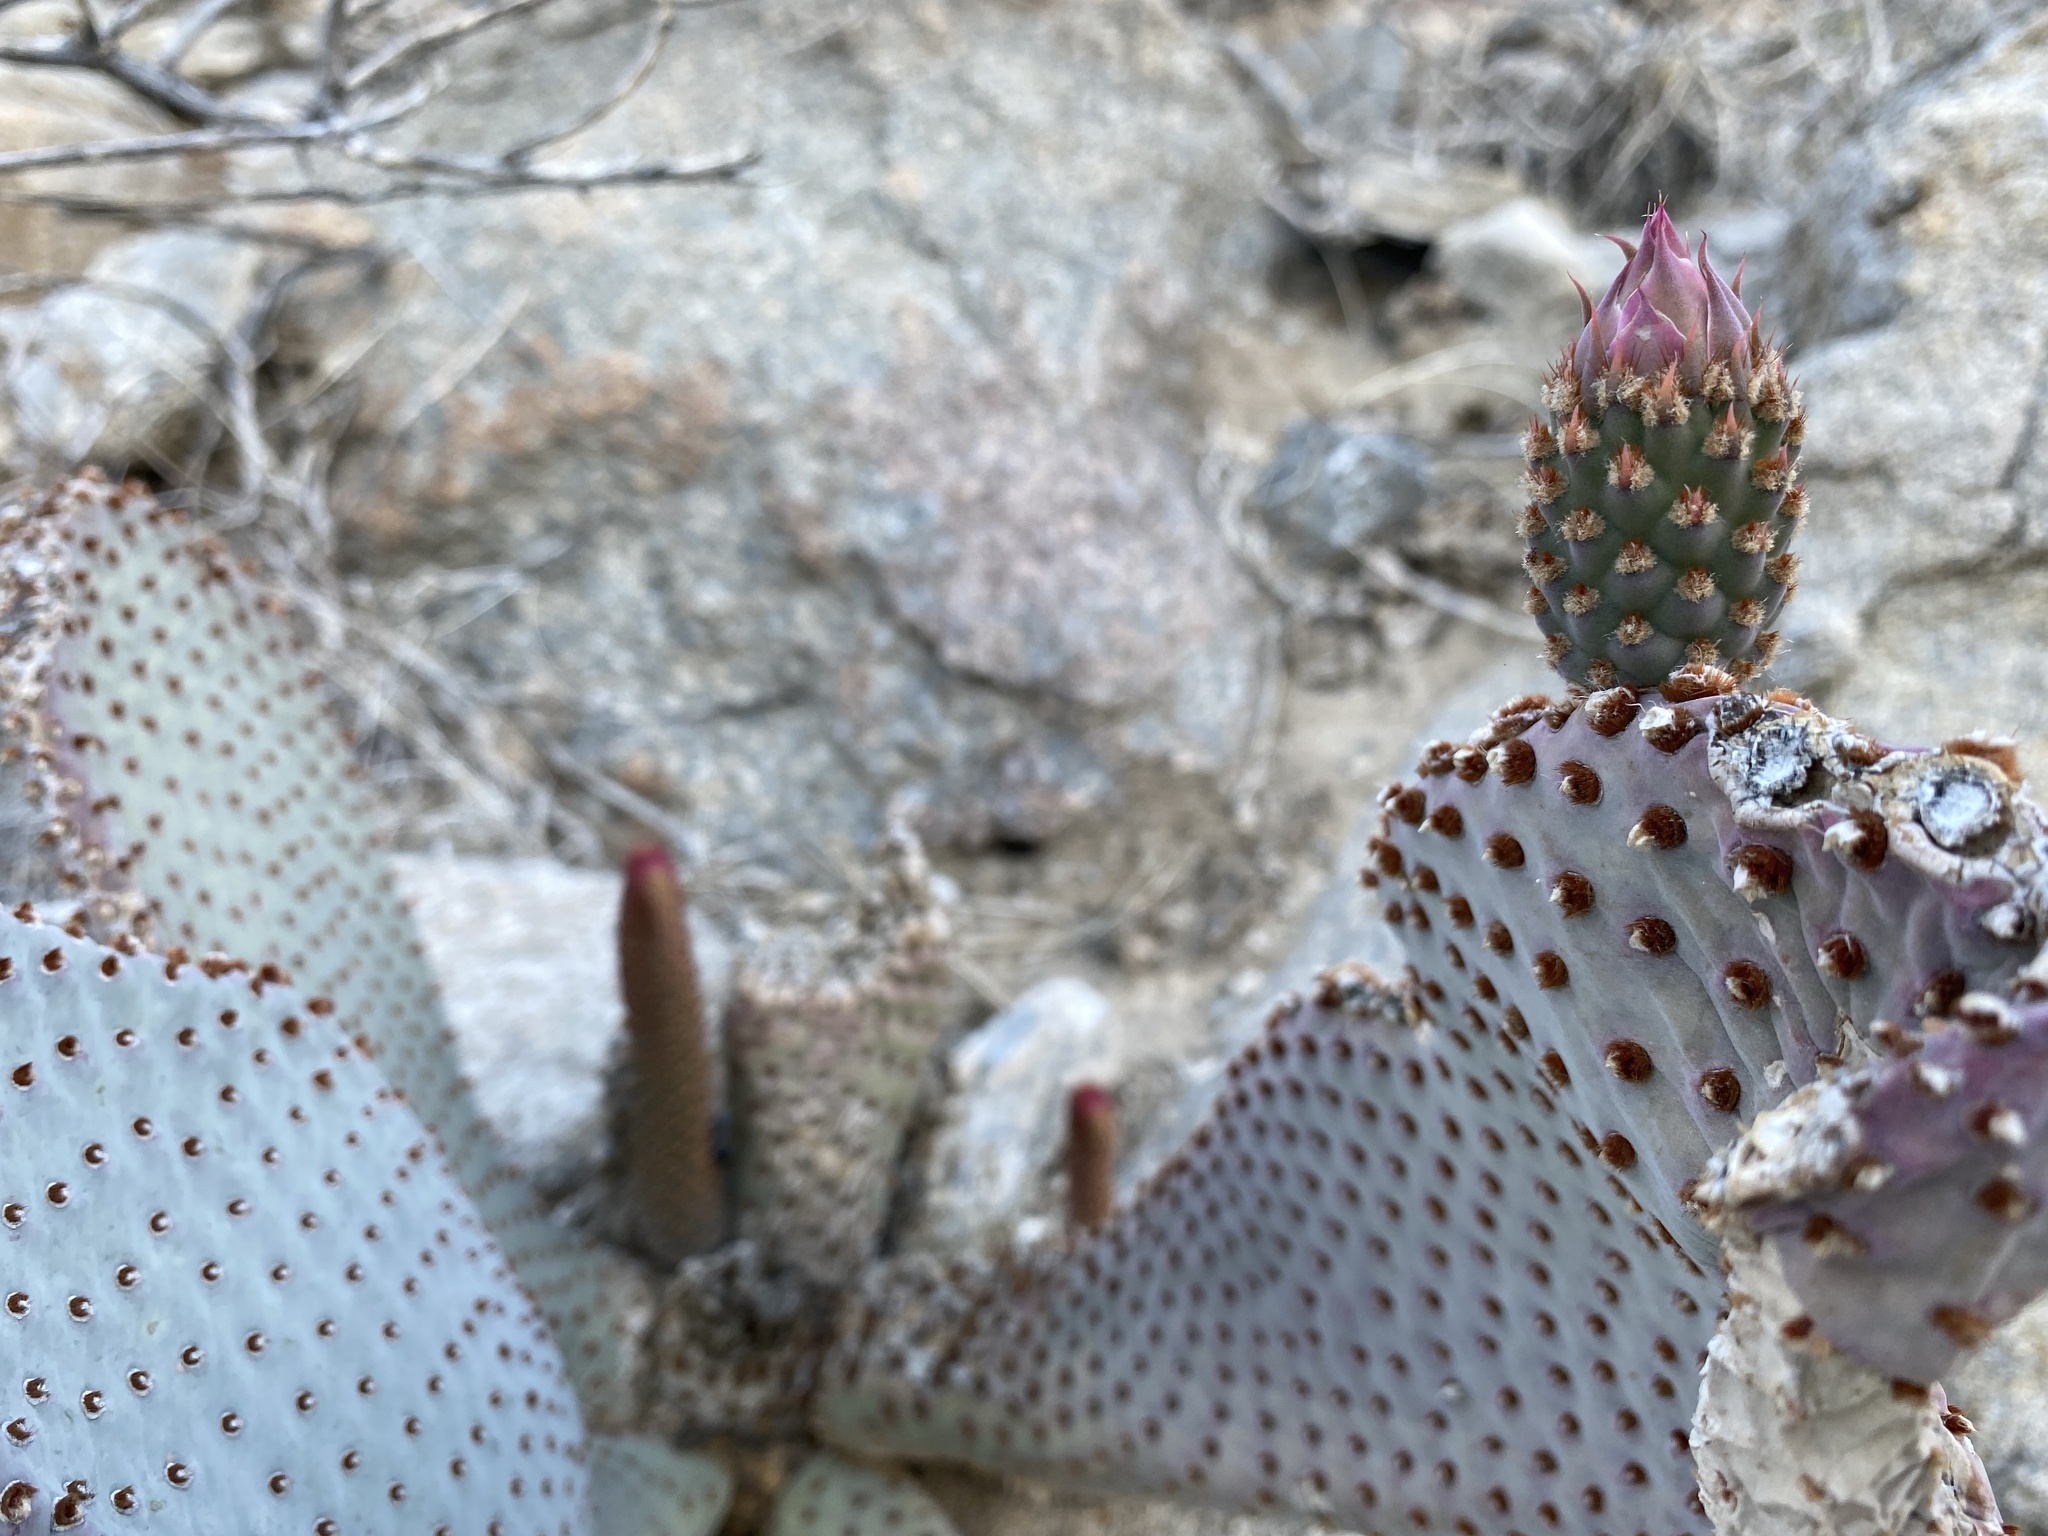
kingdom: Plantae
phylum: Tracheophyta
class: Magnoliopsida
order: Caryophyllales
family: Cactaceae
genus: Opuntia
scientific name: Opuntia basilaris
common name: Beavertail prickly-pear
